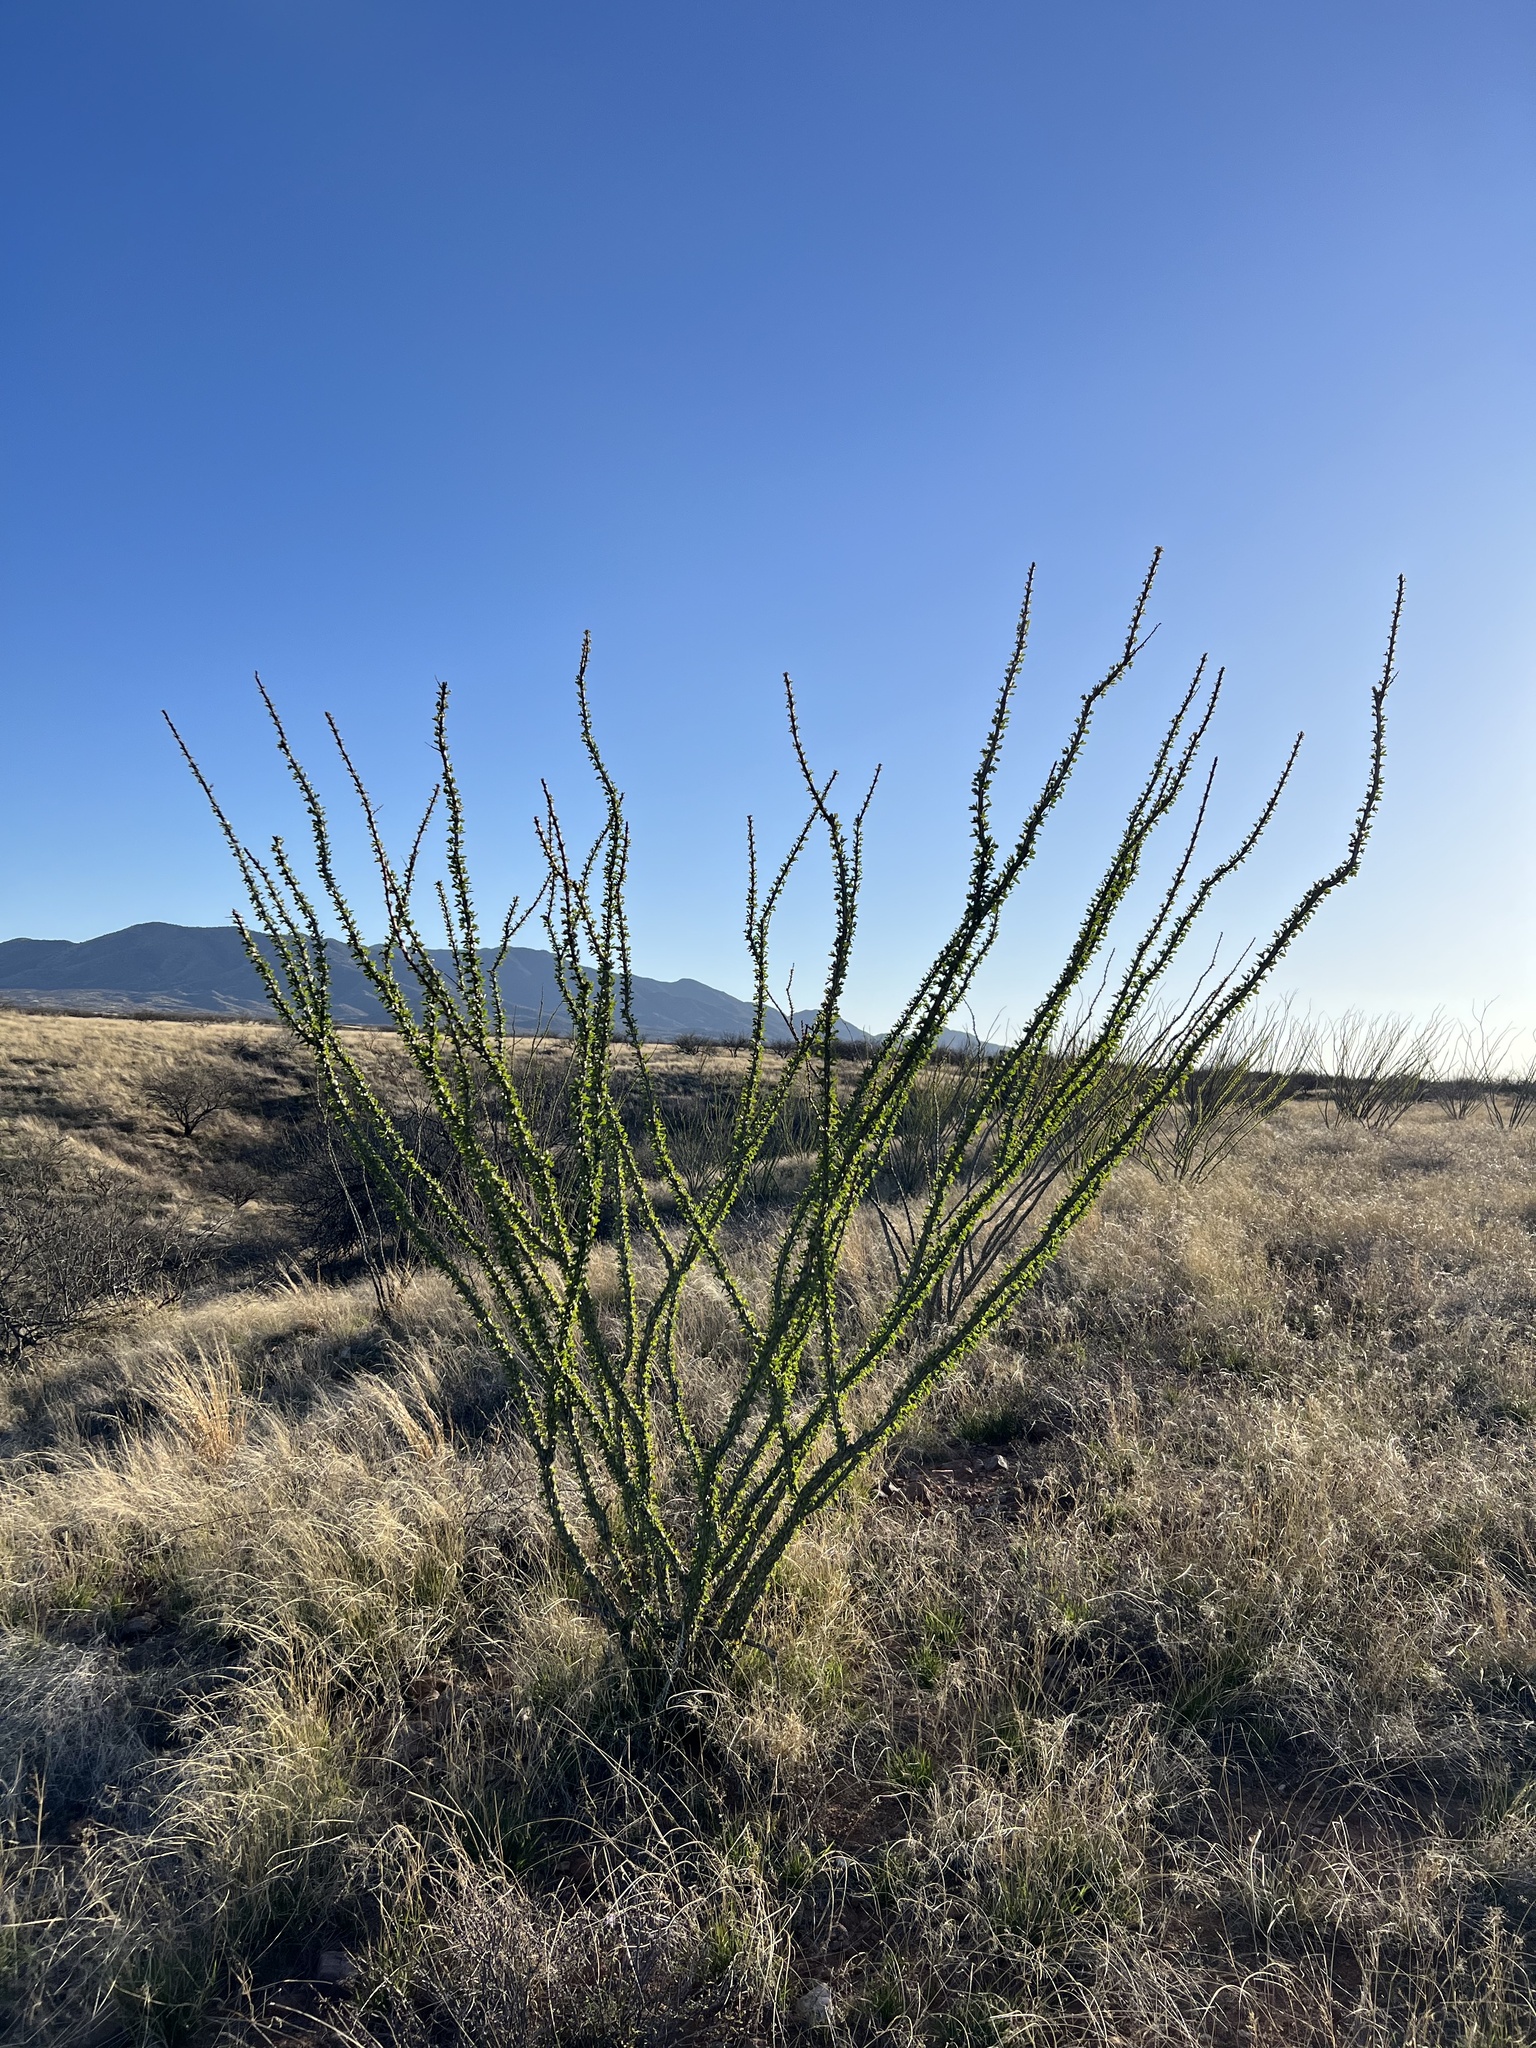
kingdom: Plantae
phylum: Tracheophyta
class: Magnoliopsida
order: Ericales
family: Fouquieriaceae
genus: Fouquieria
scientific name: Fouquieria splendens
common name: Vine-cactus
